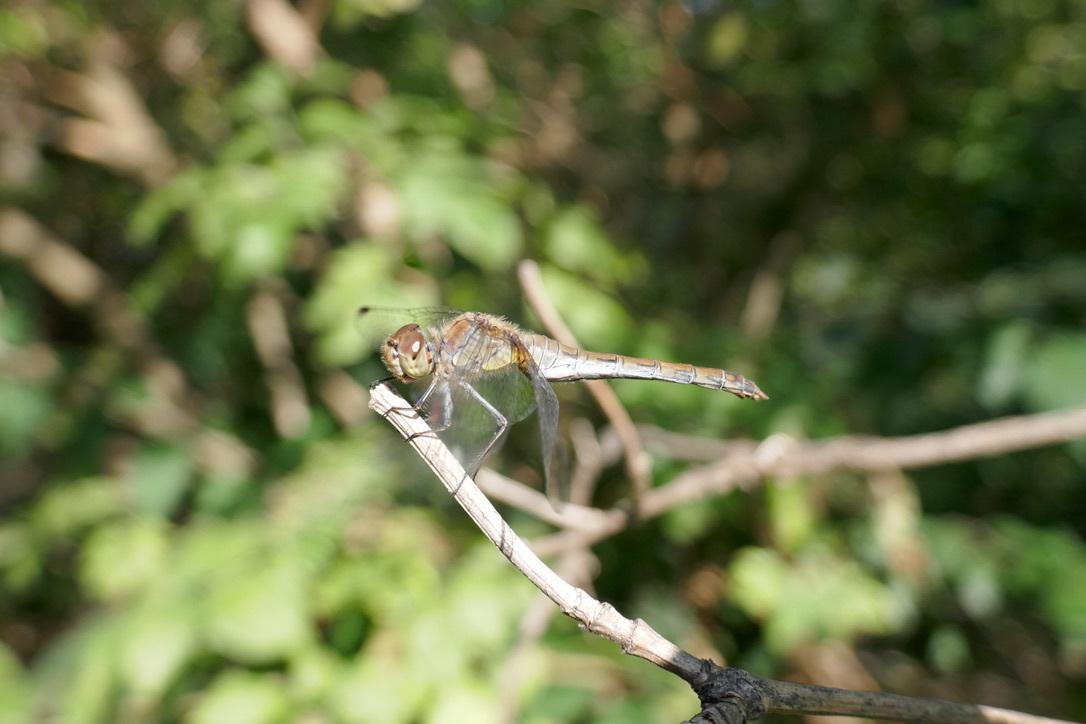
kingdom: Animalia
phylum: Arthropoda
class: Insecta
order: Odonata
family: Libellulidae
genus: Sympetrum
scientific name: Sympetrum striolatum
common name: Common darter
